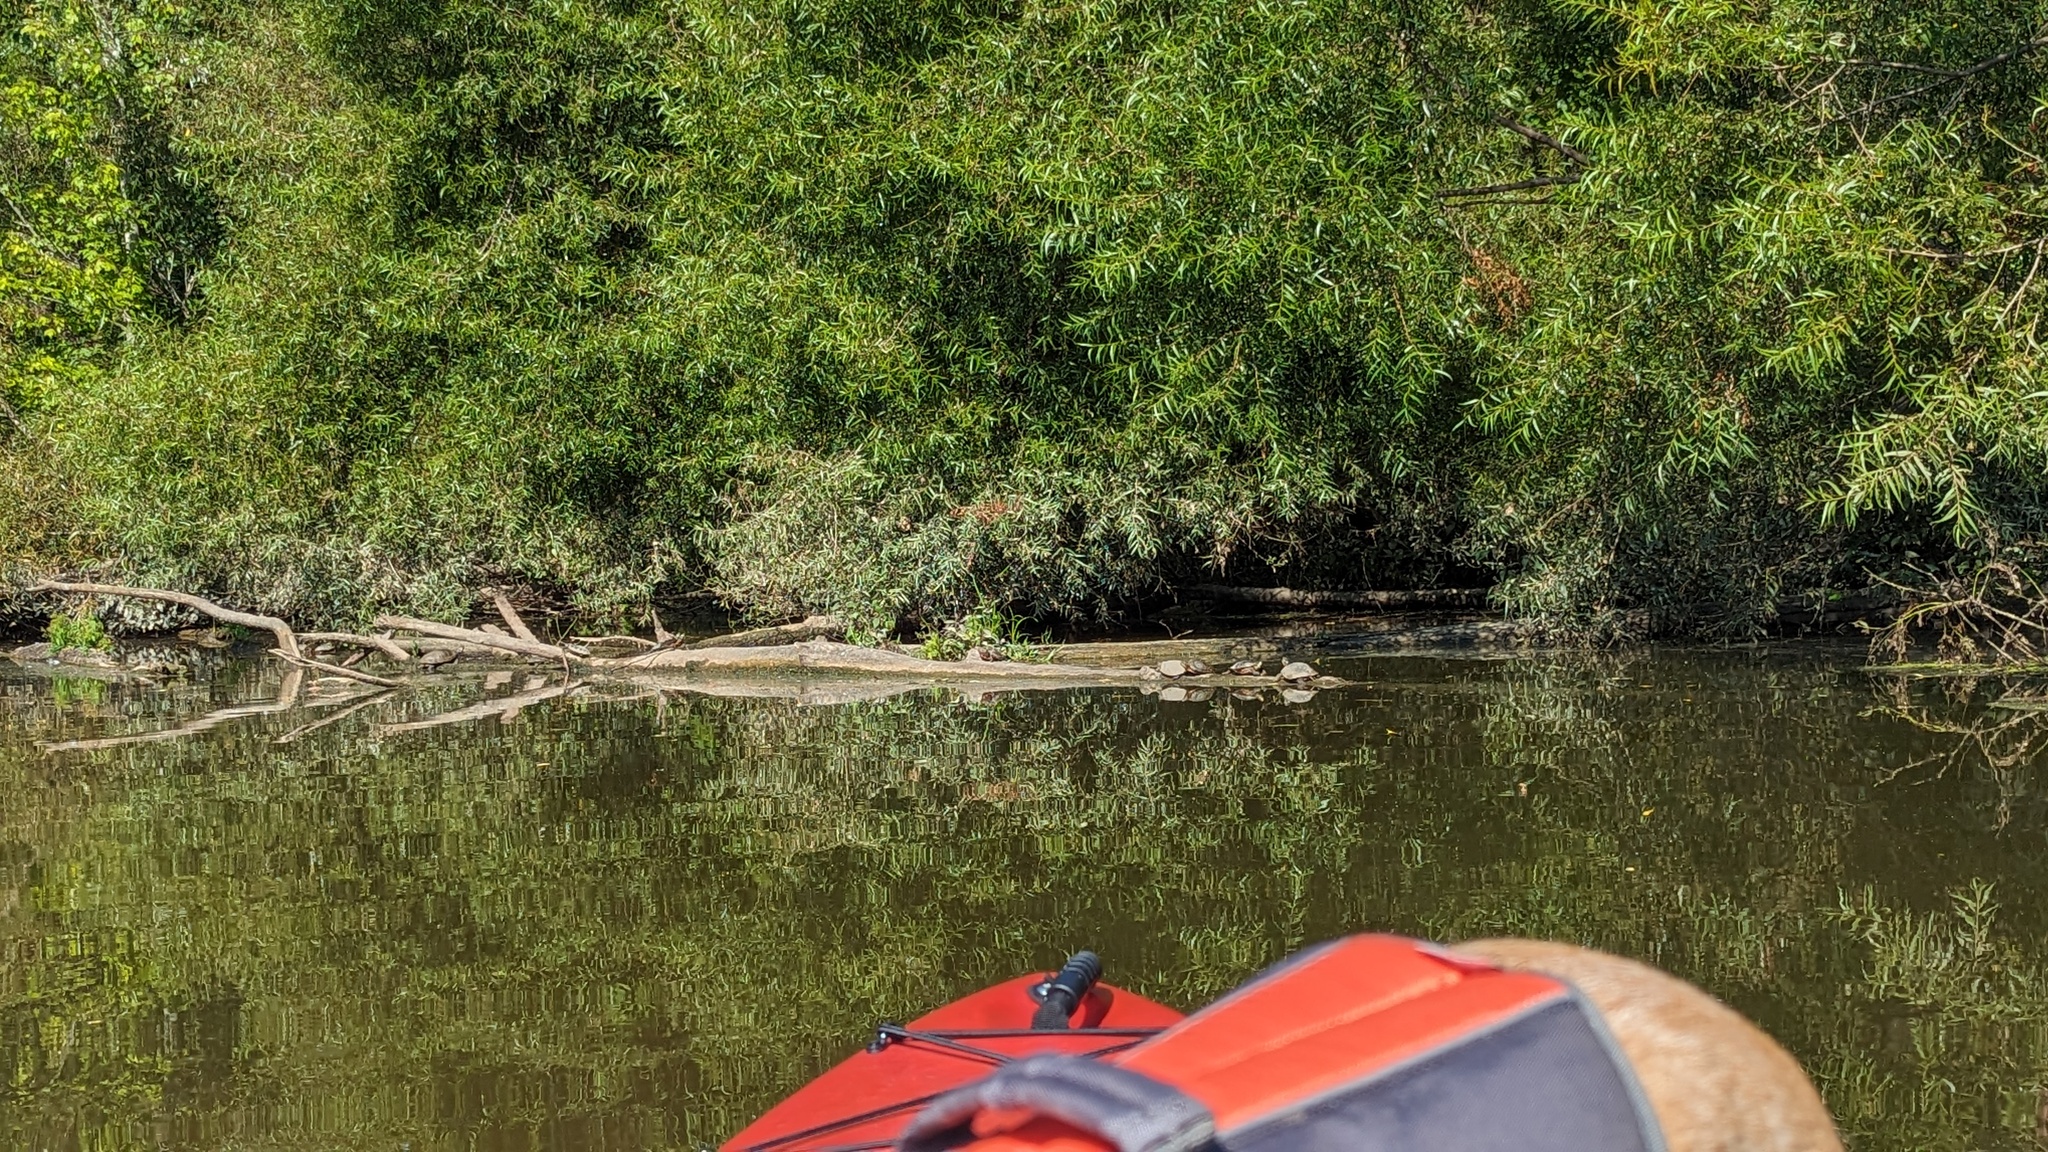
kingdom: Animalia
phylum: Chordata
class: Testudines
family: Emydidae
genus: Chrysemys
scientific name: Chrysemys picta
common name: Painted turtle
